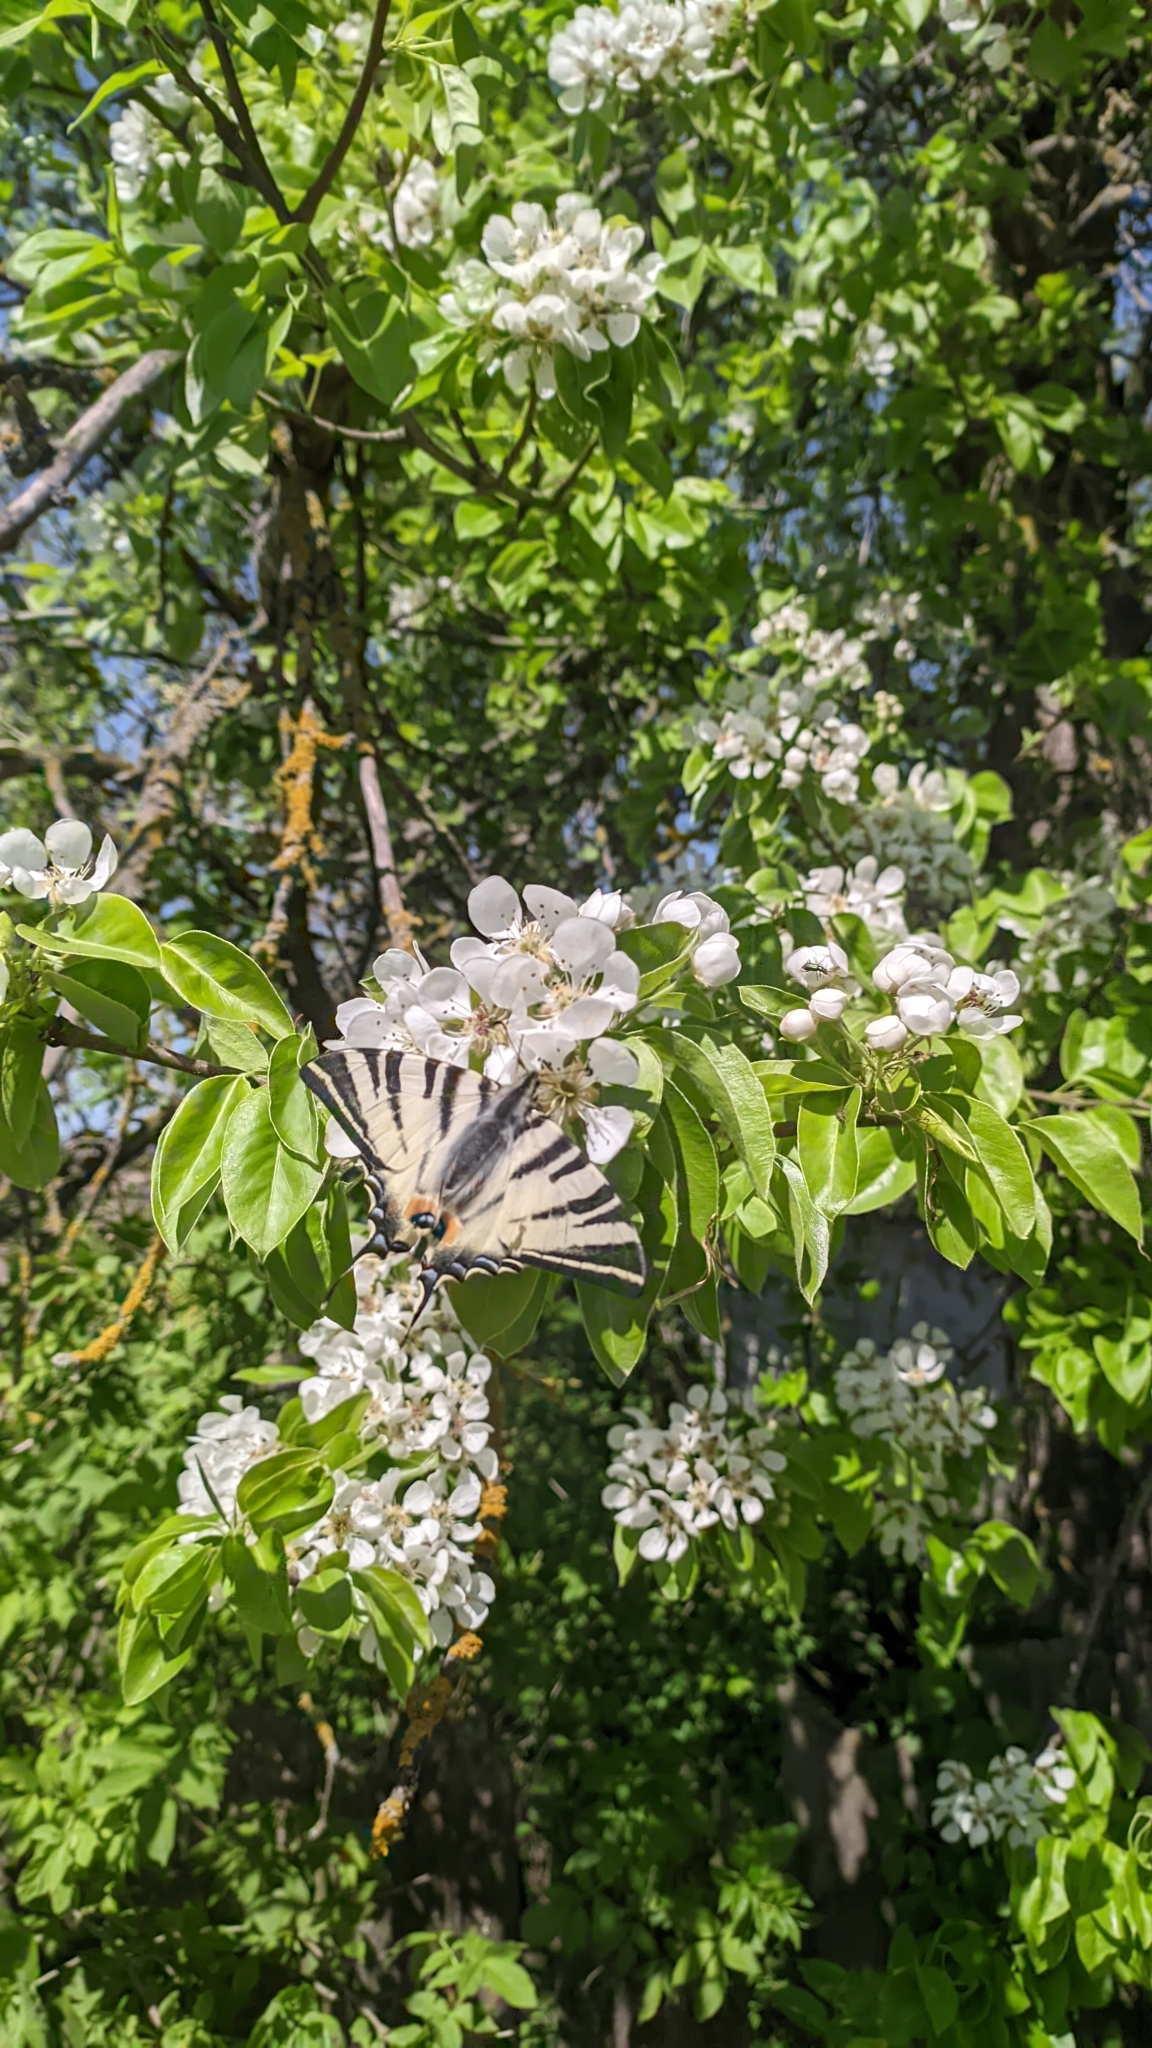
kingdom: Animalia
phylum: Arthropoda
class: Insecta
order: Lepidoptera
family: Papilionidae
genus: Iphiclides
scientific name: Iphiclides podalirius
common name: Scarce swallowtail
